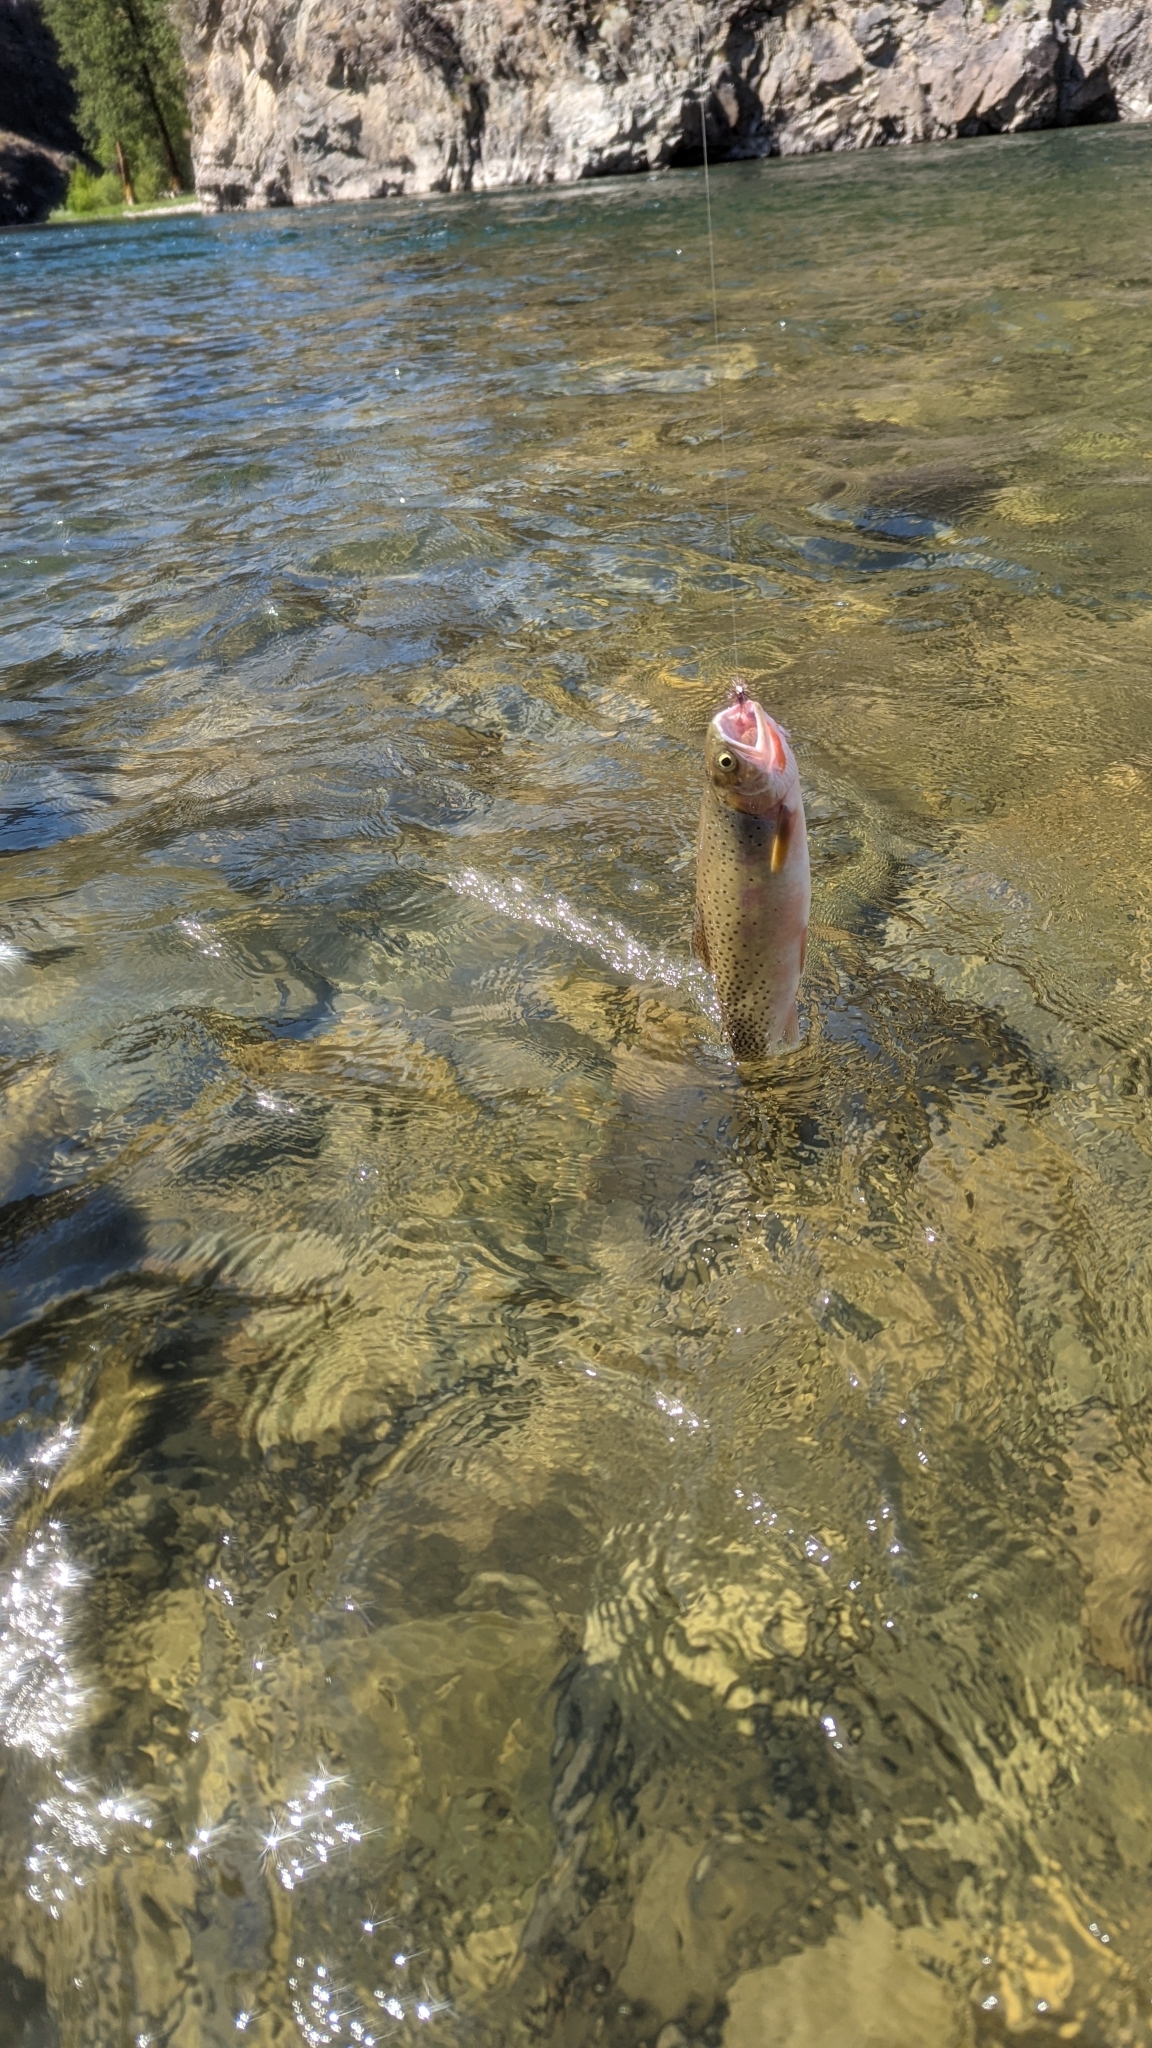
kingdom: Animalia
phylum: Chordata
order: Salmoniformes
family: Salmonidae
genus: Oncorhynchus
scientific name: Oncorhynchus
